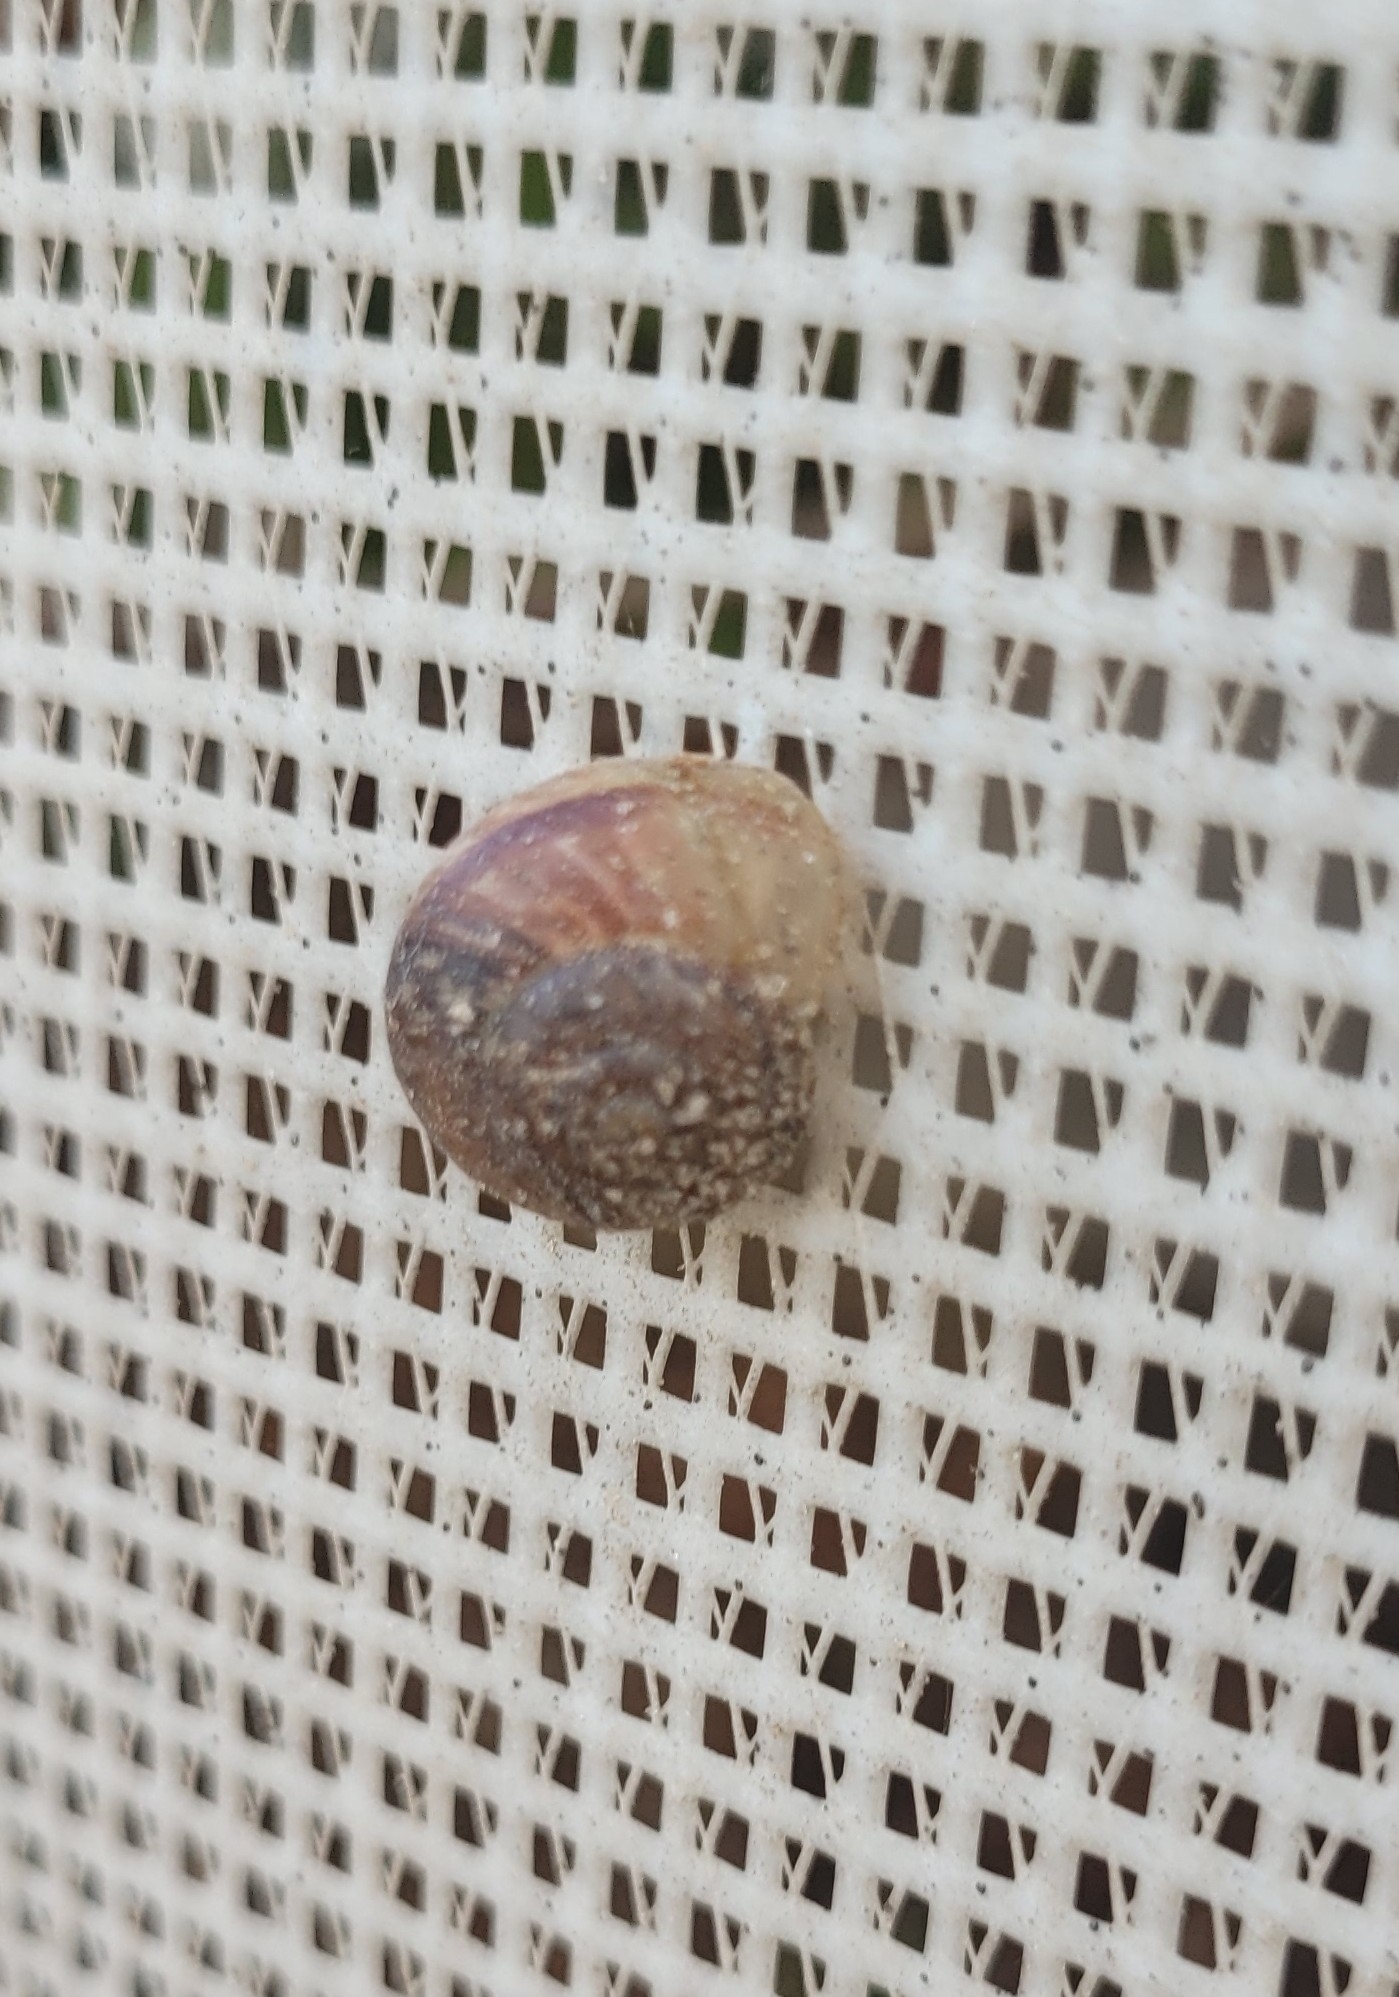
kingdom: Animalia
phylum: Mollusca
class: Gastropoda
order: Stylommatophora
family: Helicidae
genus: Arianta
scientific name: Arianta arbustorum
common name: Copse snail
